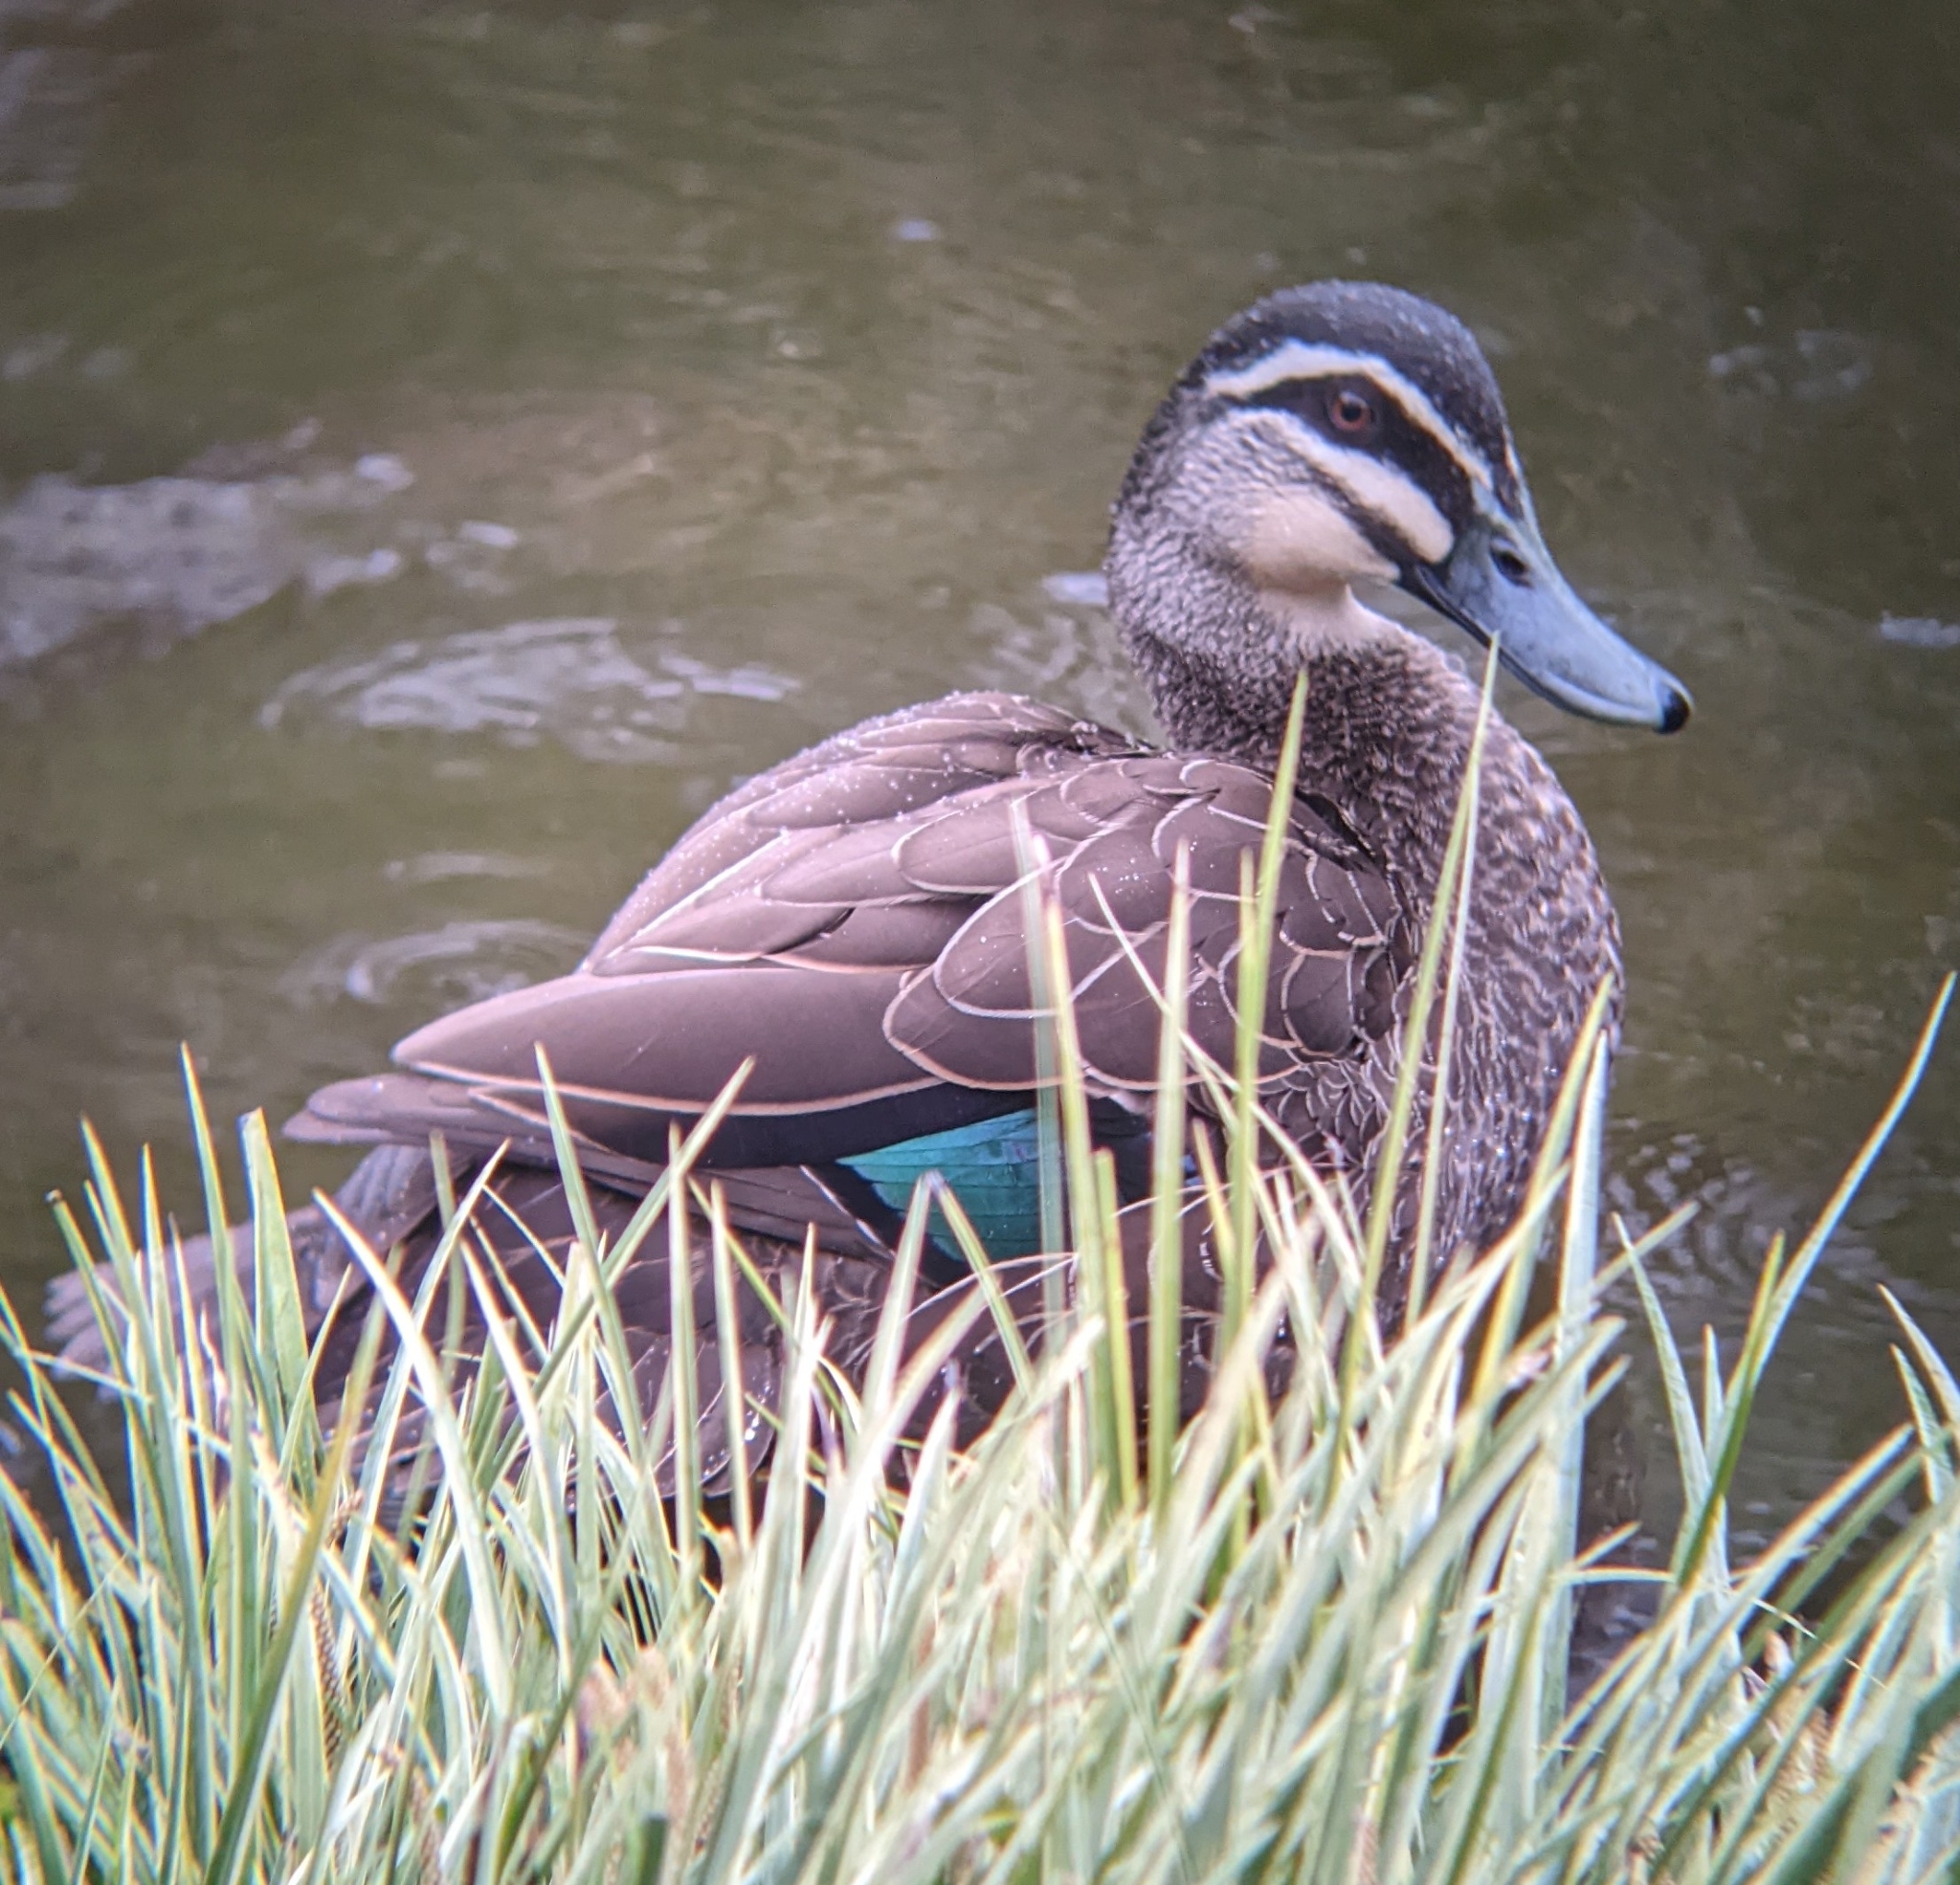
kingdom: Animalia
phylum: Chordata
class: Aves
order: Anseriformes
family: Anatidae
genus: Anas
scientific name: Anas superciliosa
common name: Pacific black duck
